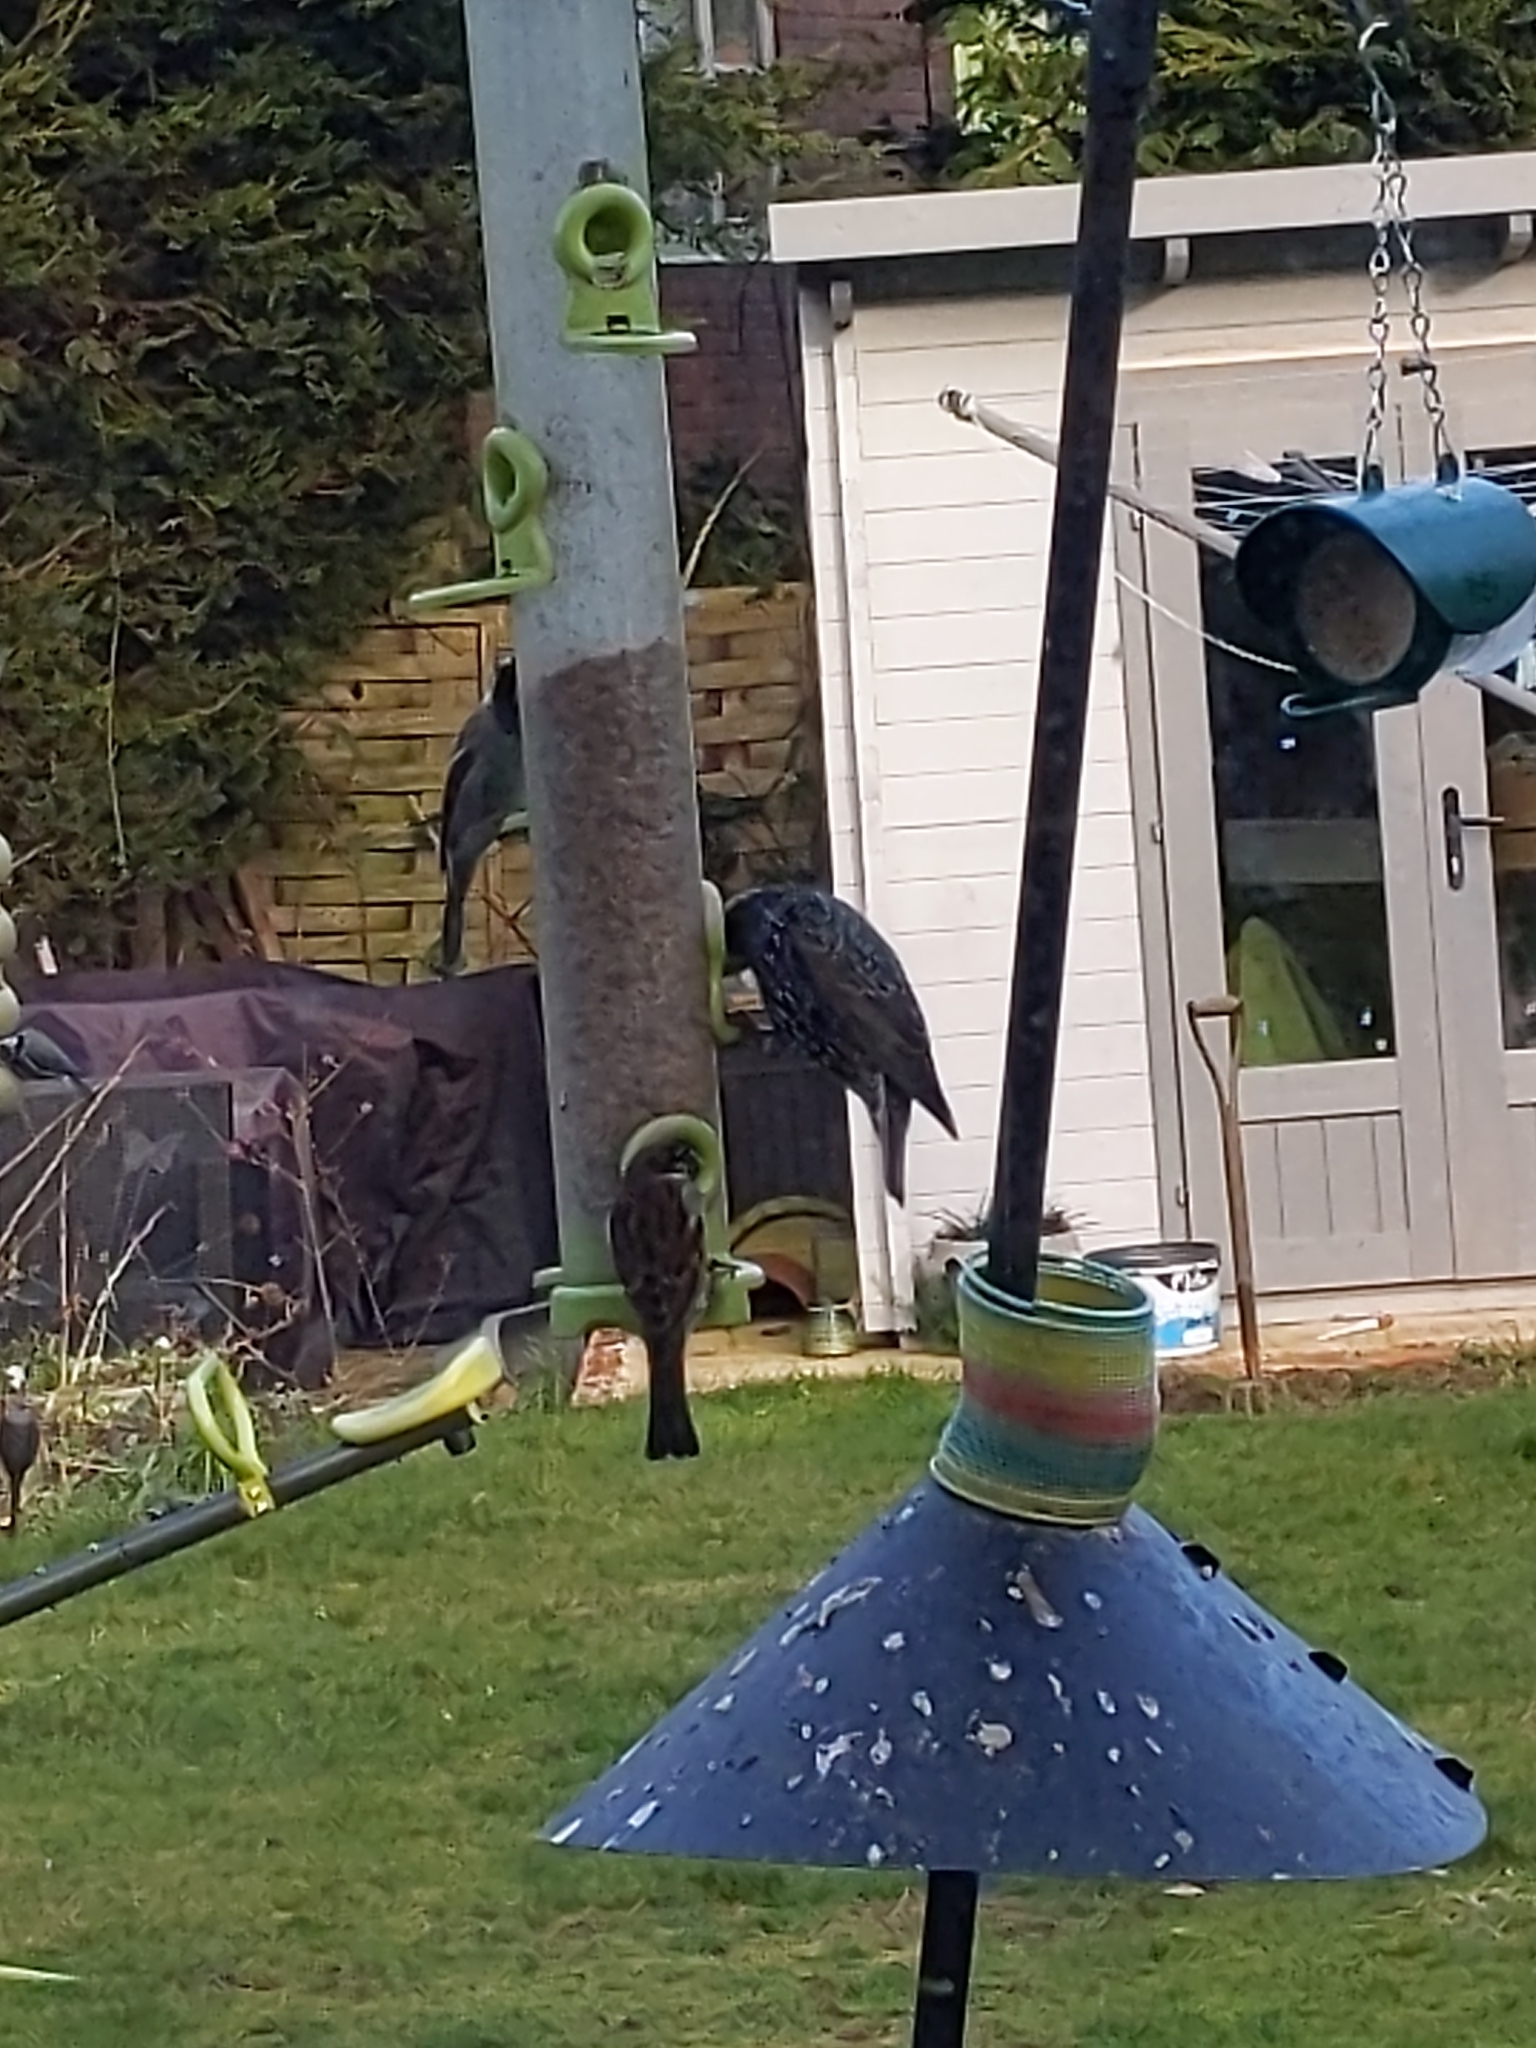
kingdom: Animalia
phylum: Chordata
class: Aves
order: Passeriformes
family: Sturnidae
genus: Sturnus
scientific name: Sturnus vulgaris
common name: Common starling
